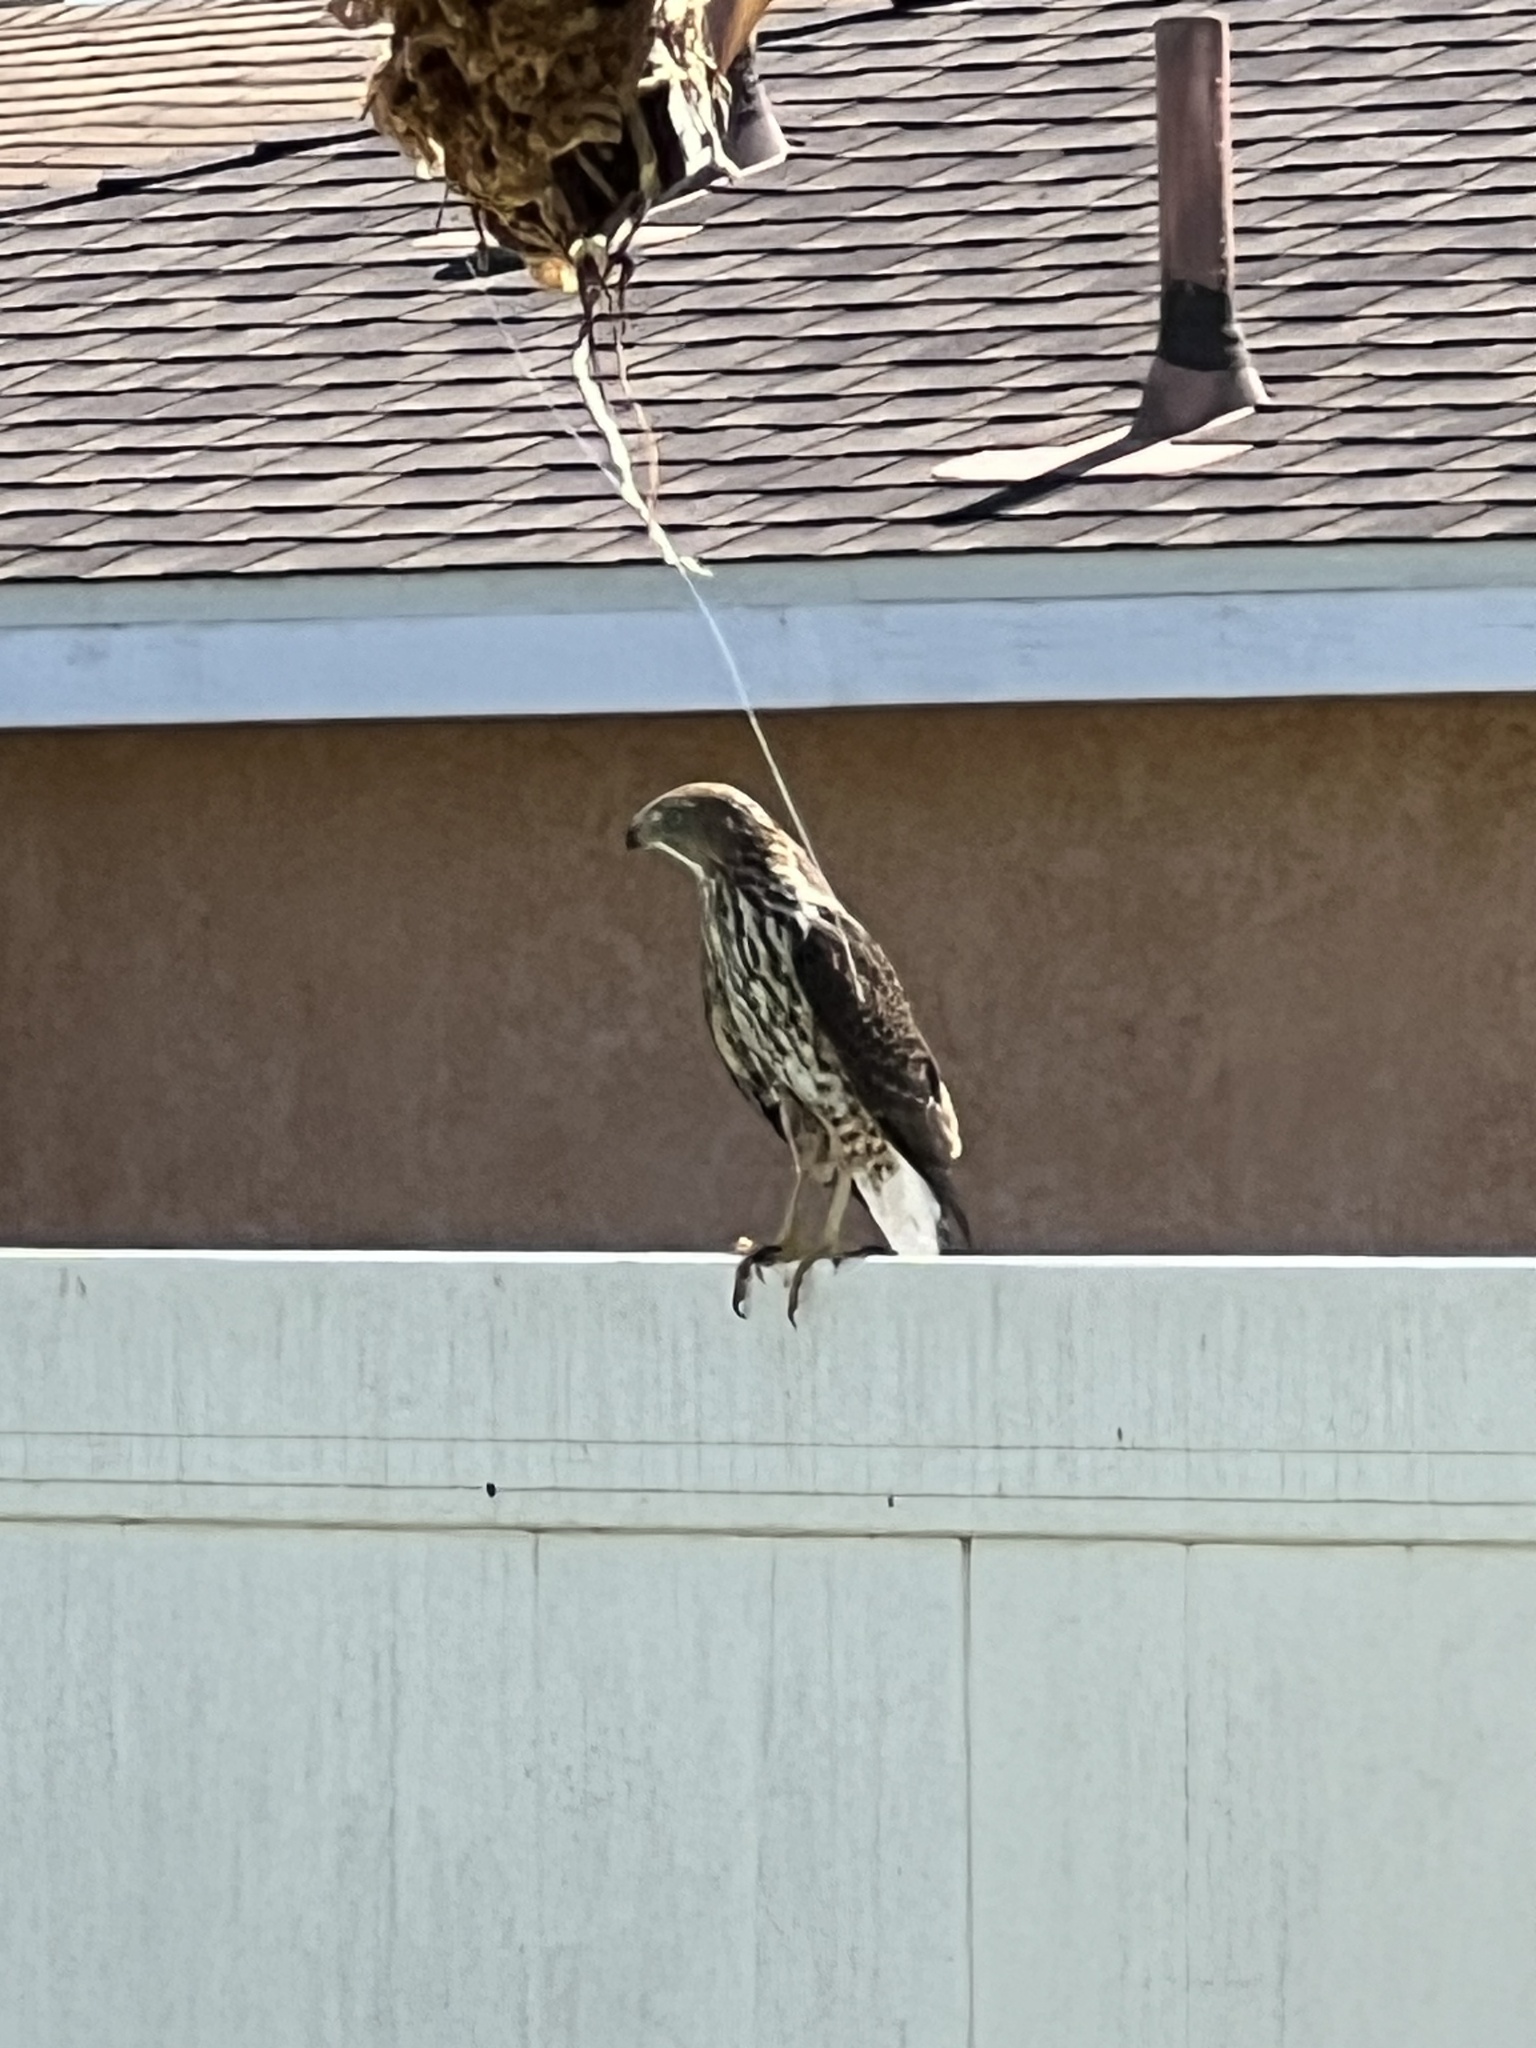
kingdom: Animalia
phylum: Chordata
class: Aves
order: Accipitriformes
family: Accipitridae
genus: Accipiter
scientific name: Accipiter cooperii
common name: Cooper's hawk
